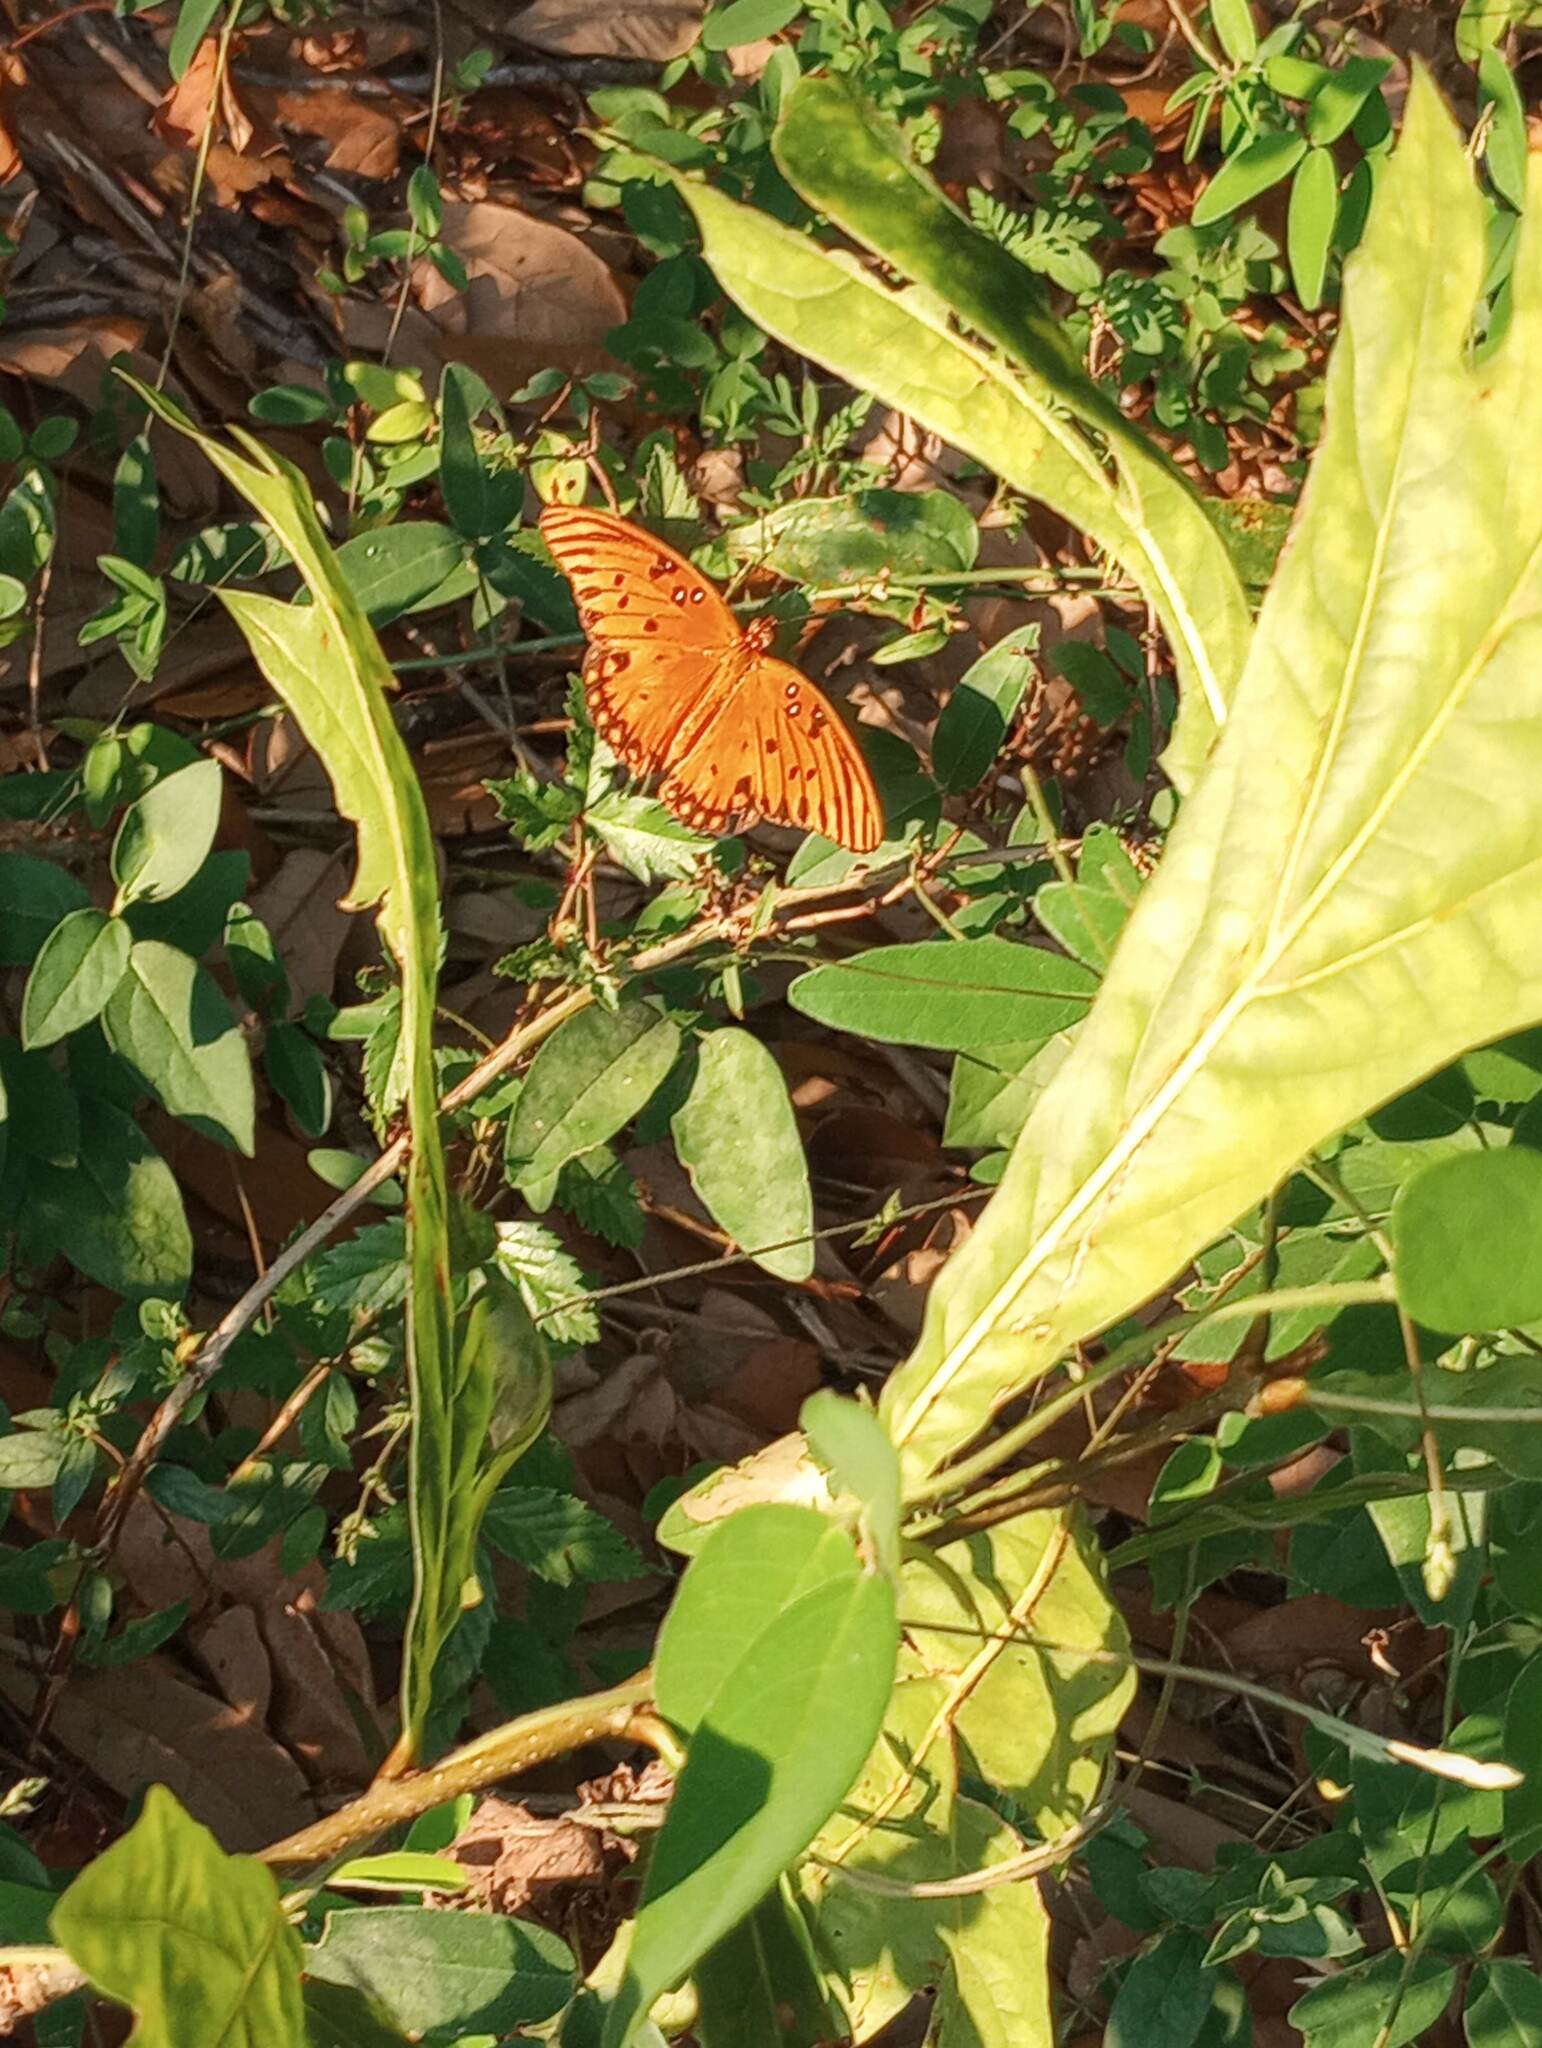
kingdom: Animalia
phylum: Arthropoda
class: Insecta
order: Lepidoptera
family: Nymphalidae
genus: Dione
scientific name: Dione vanillae
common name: Gulf fritillary
